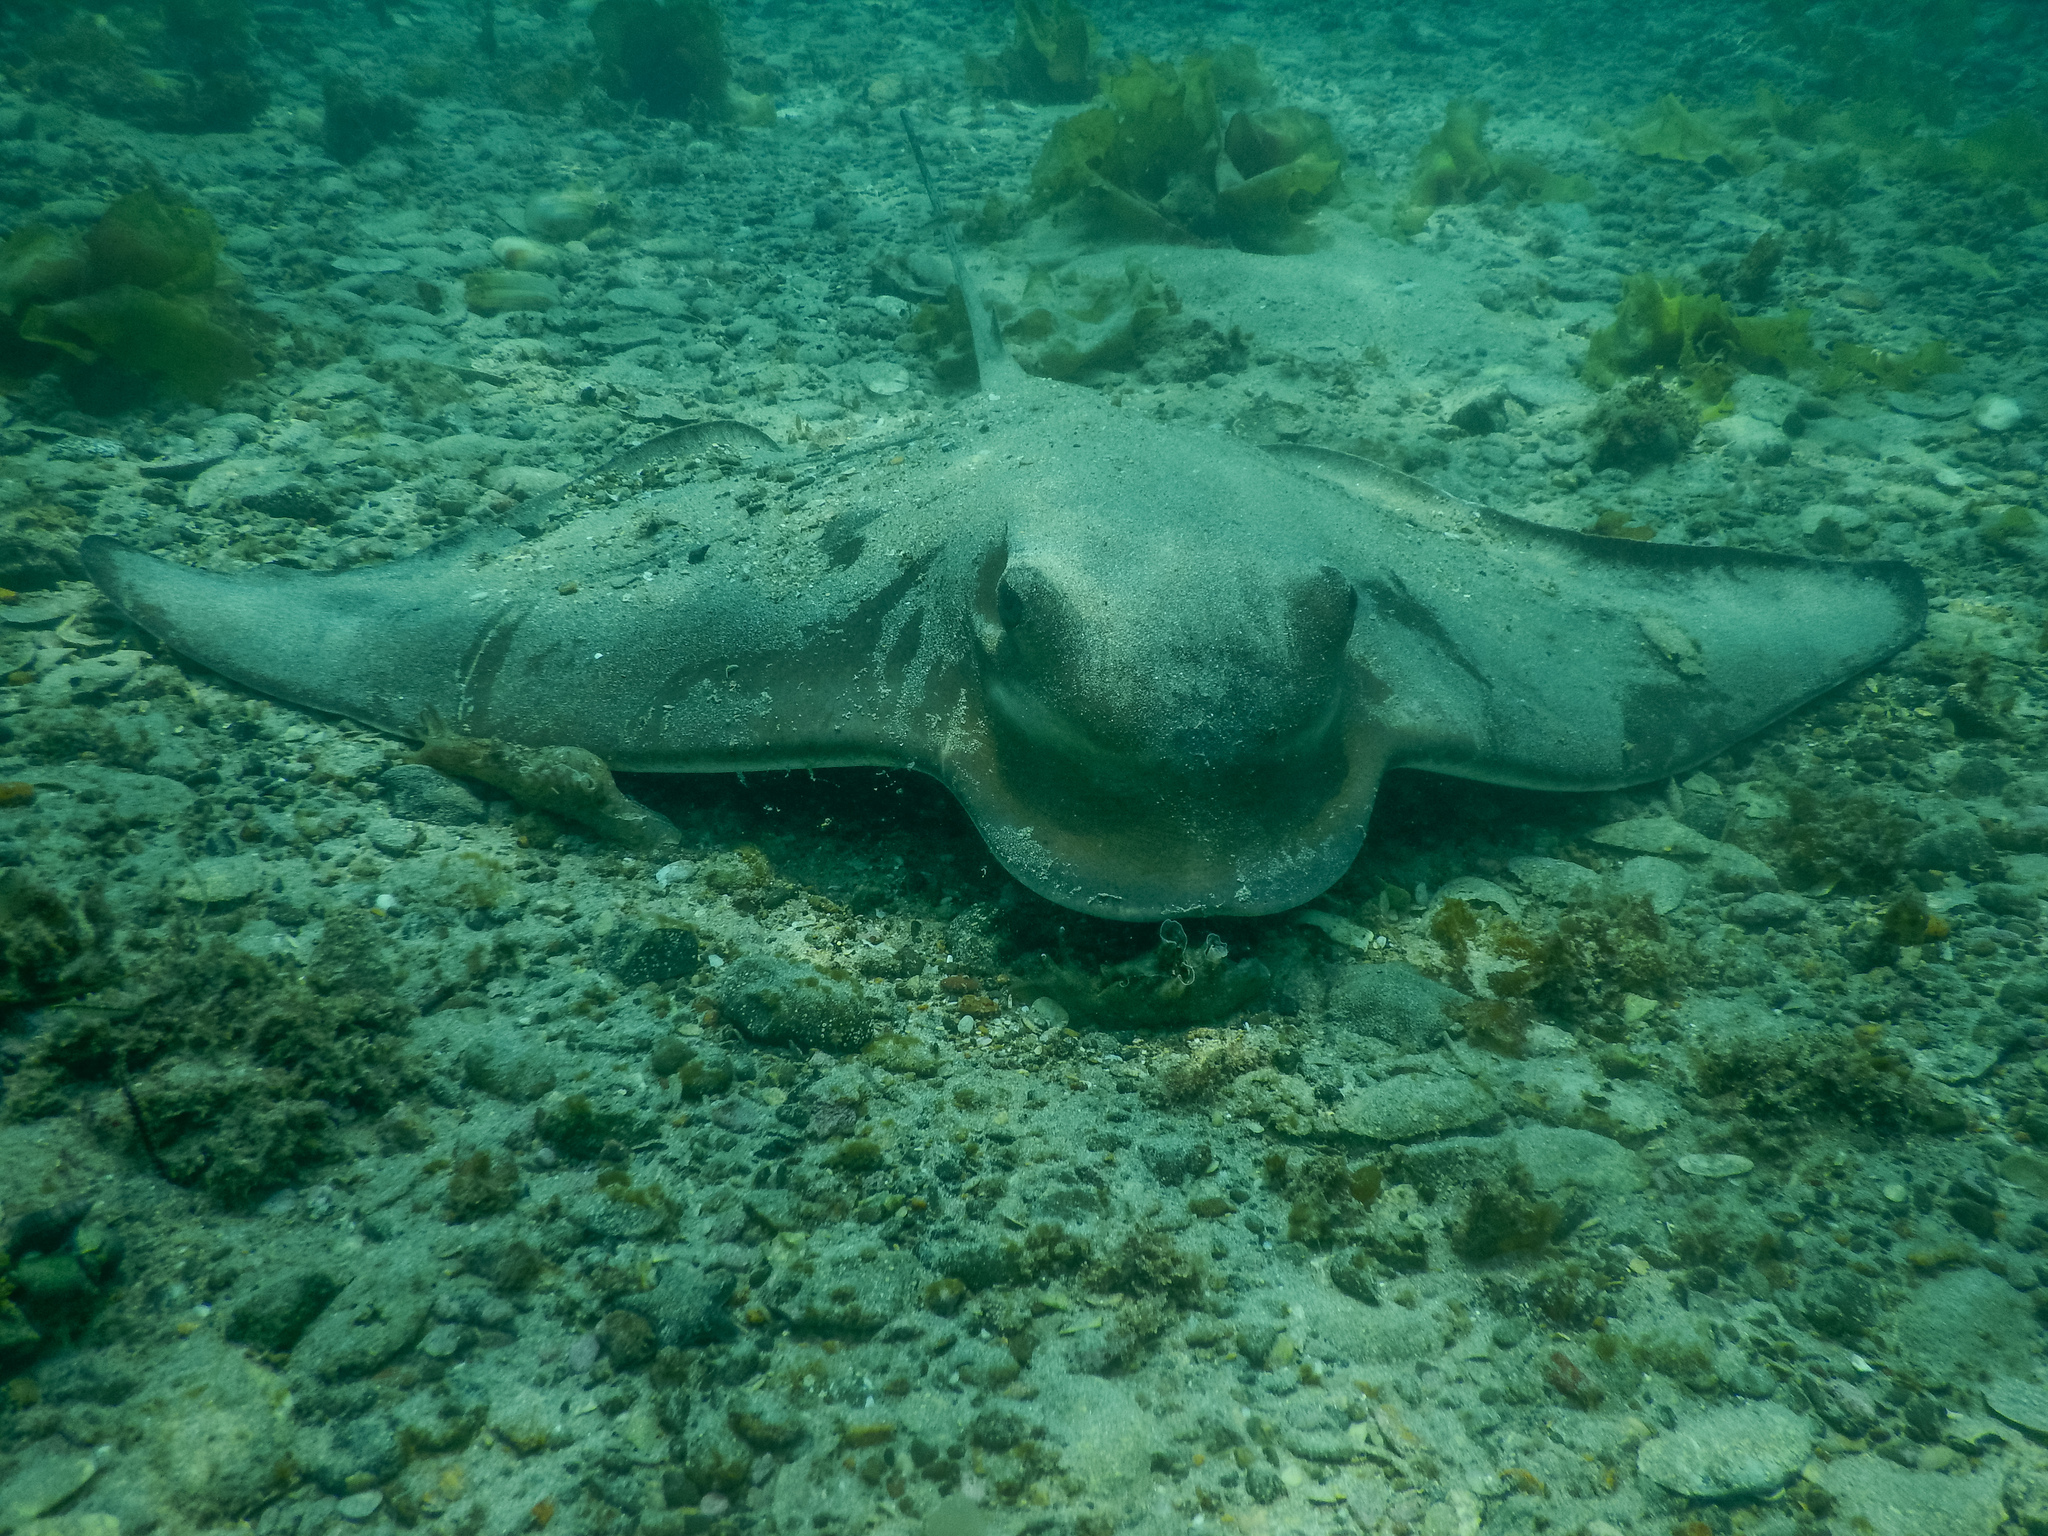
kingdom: Animalia
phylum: Chordata
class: Elasmobranchii
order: Myliobatiformes
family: Myliobatidae
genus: Myliobatis
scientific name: Myliobatis tenuicaudatus
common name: Eagle ray
